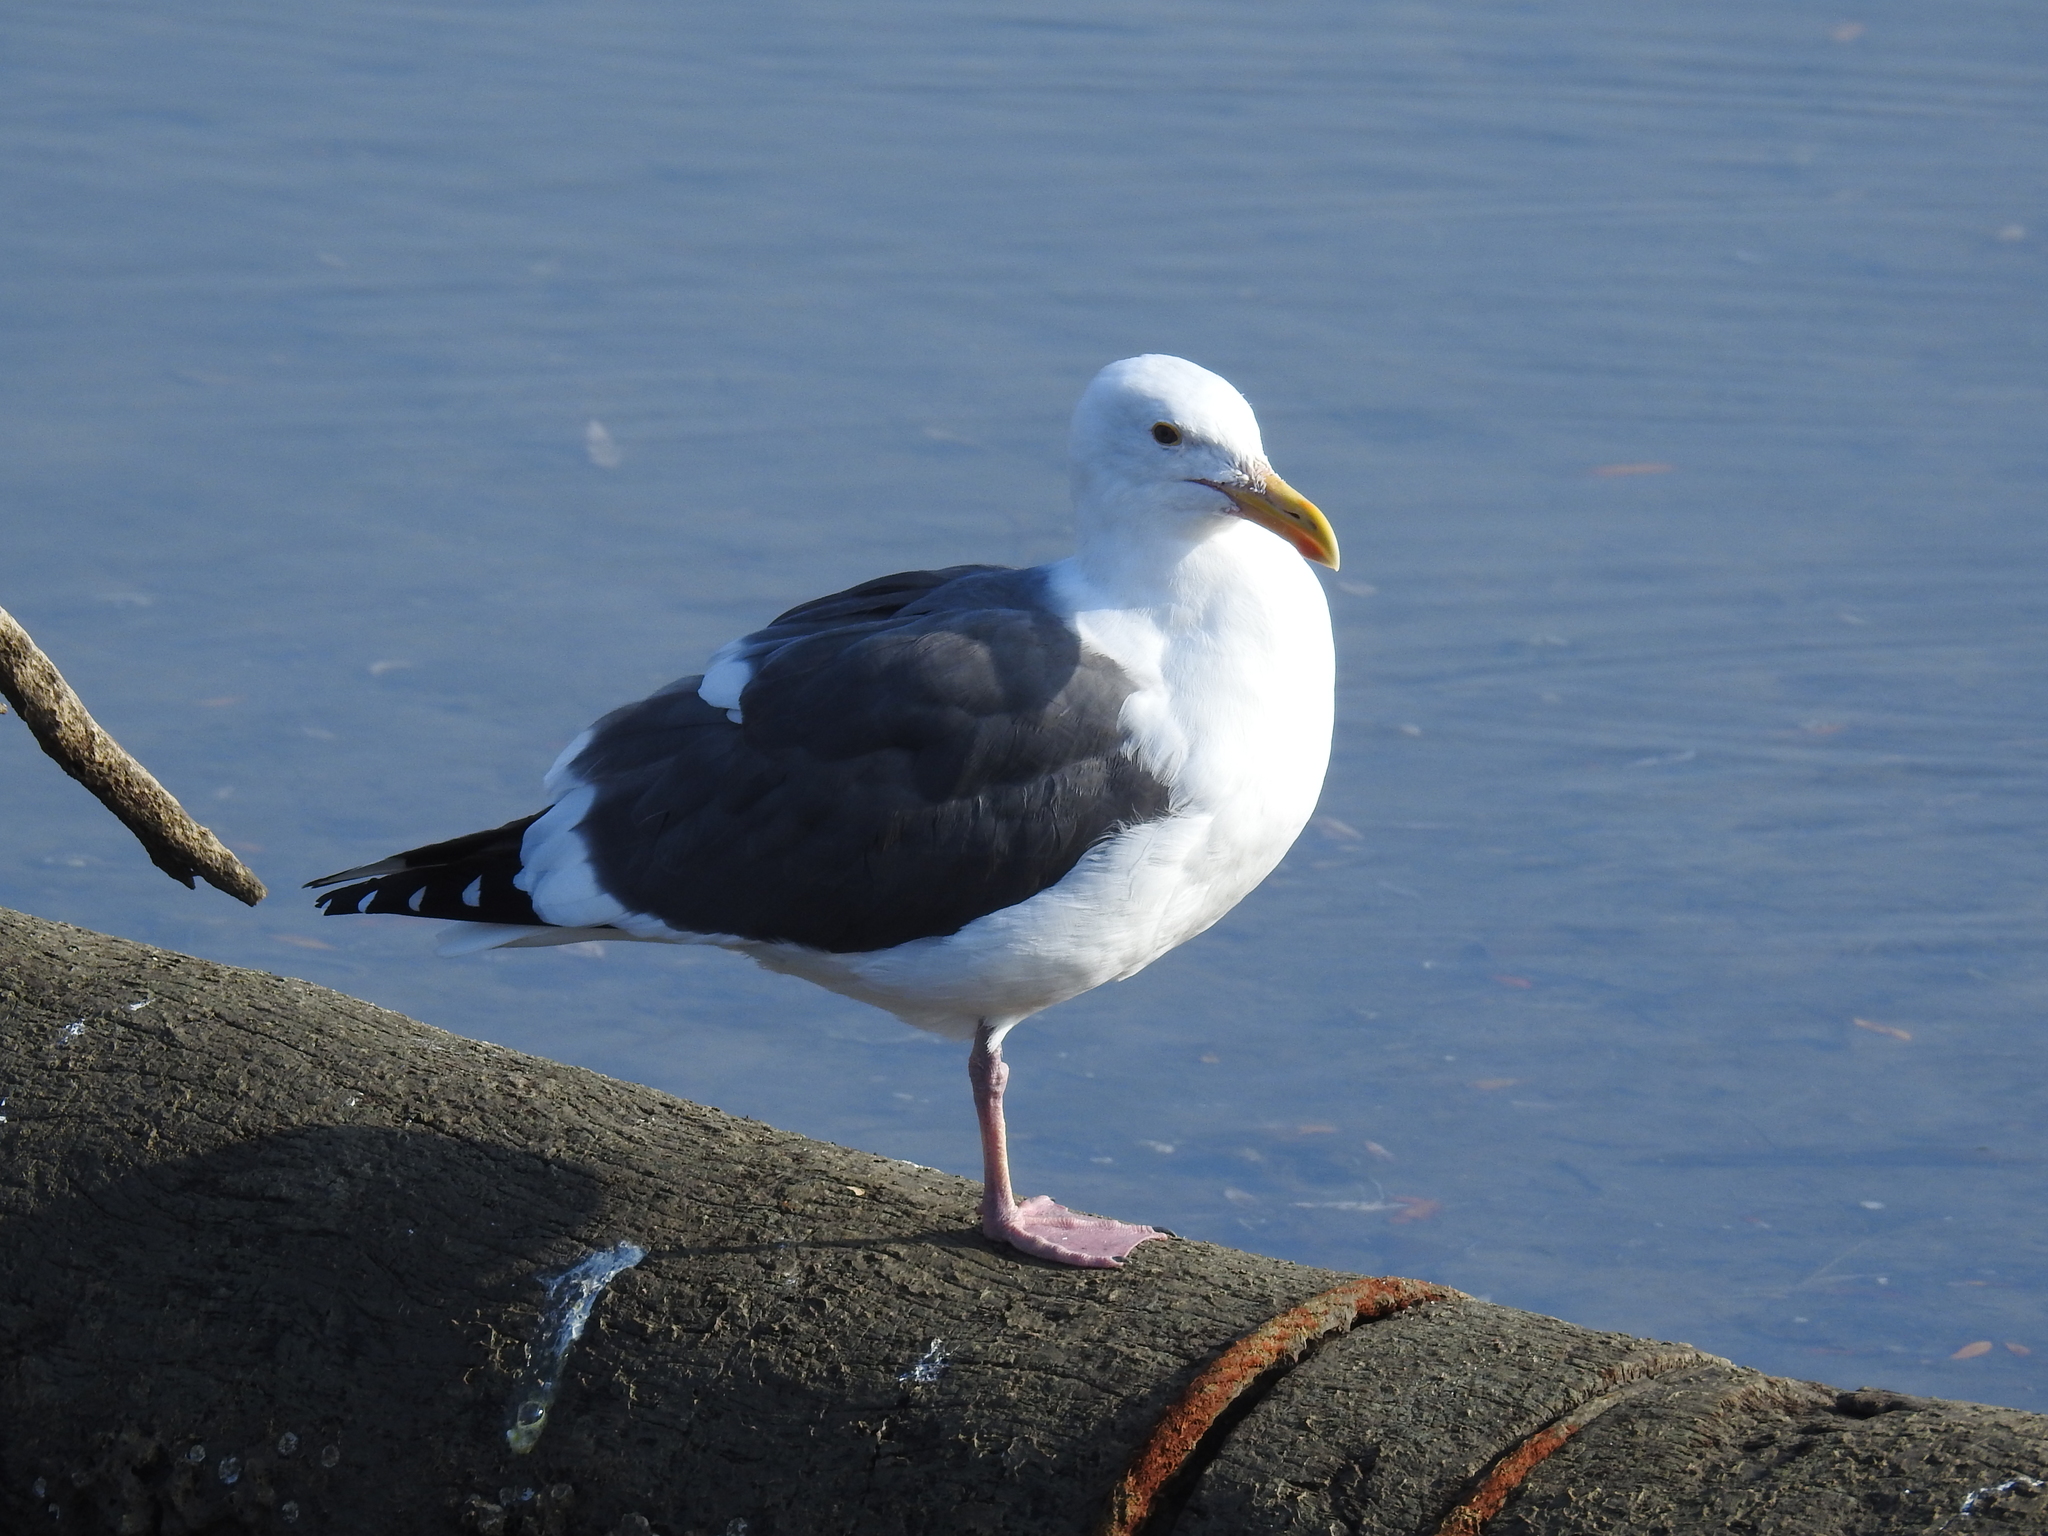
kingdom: Animalia
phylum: Chordata
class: Aves
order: Charadriiformes
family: Laridae
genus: Larus
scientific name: Larus occidentalis
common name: Western gull
